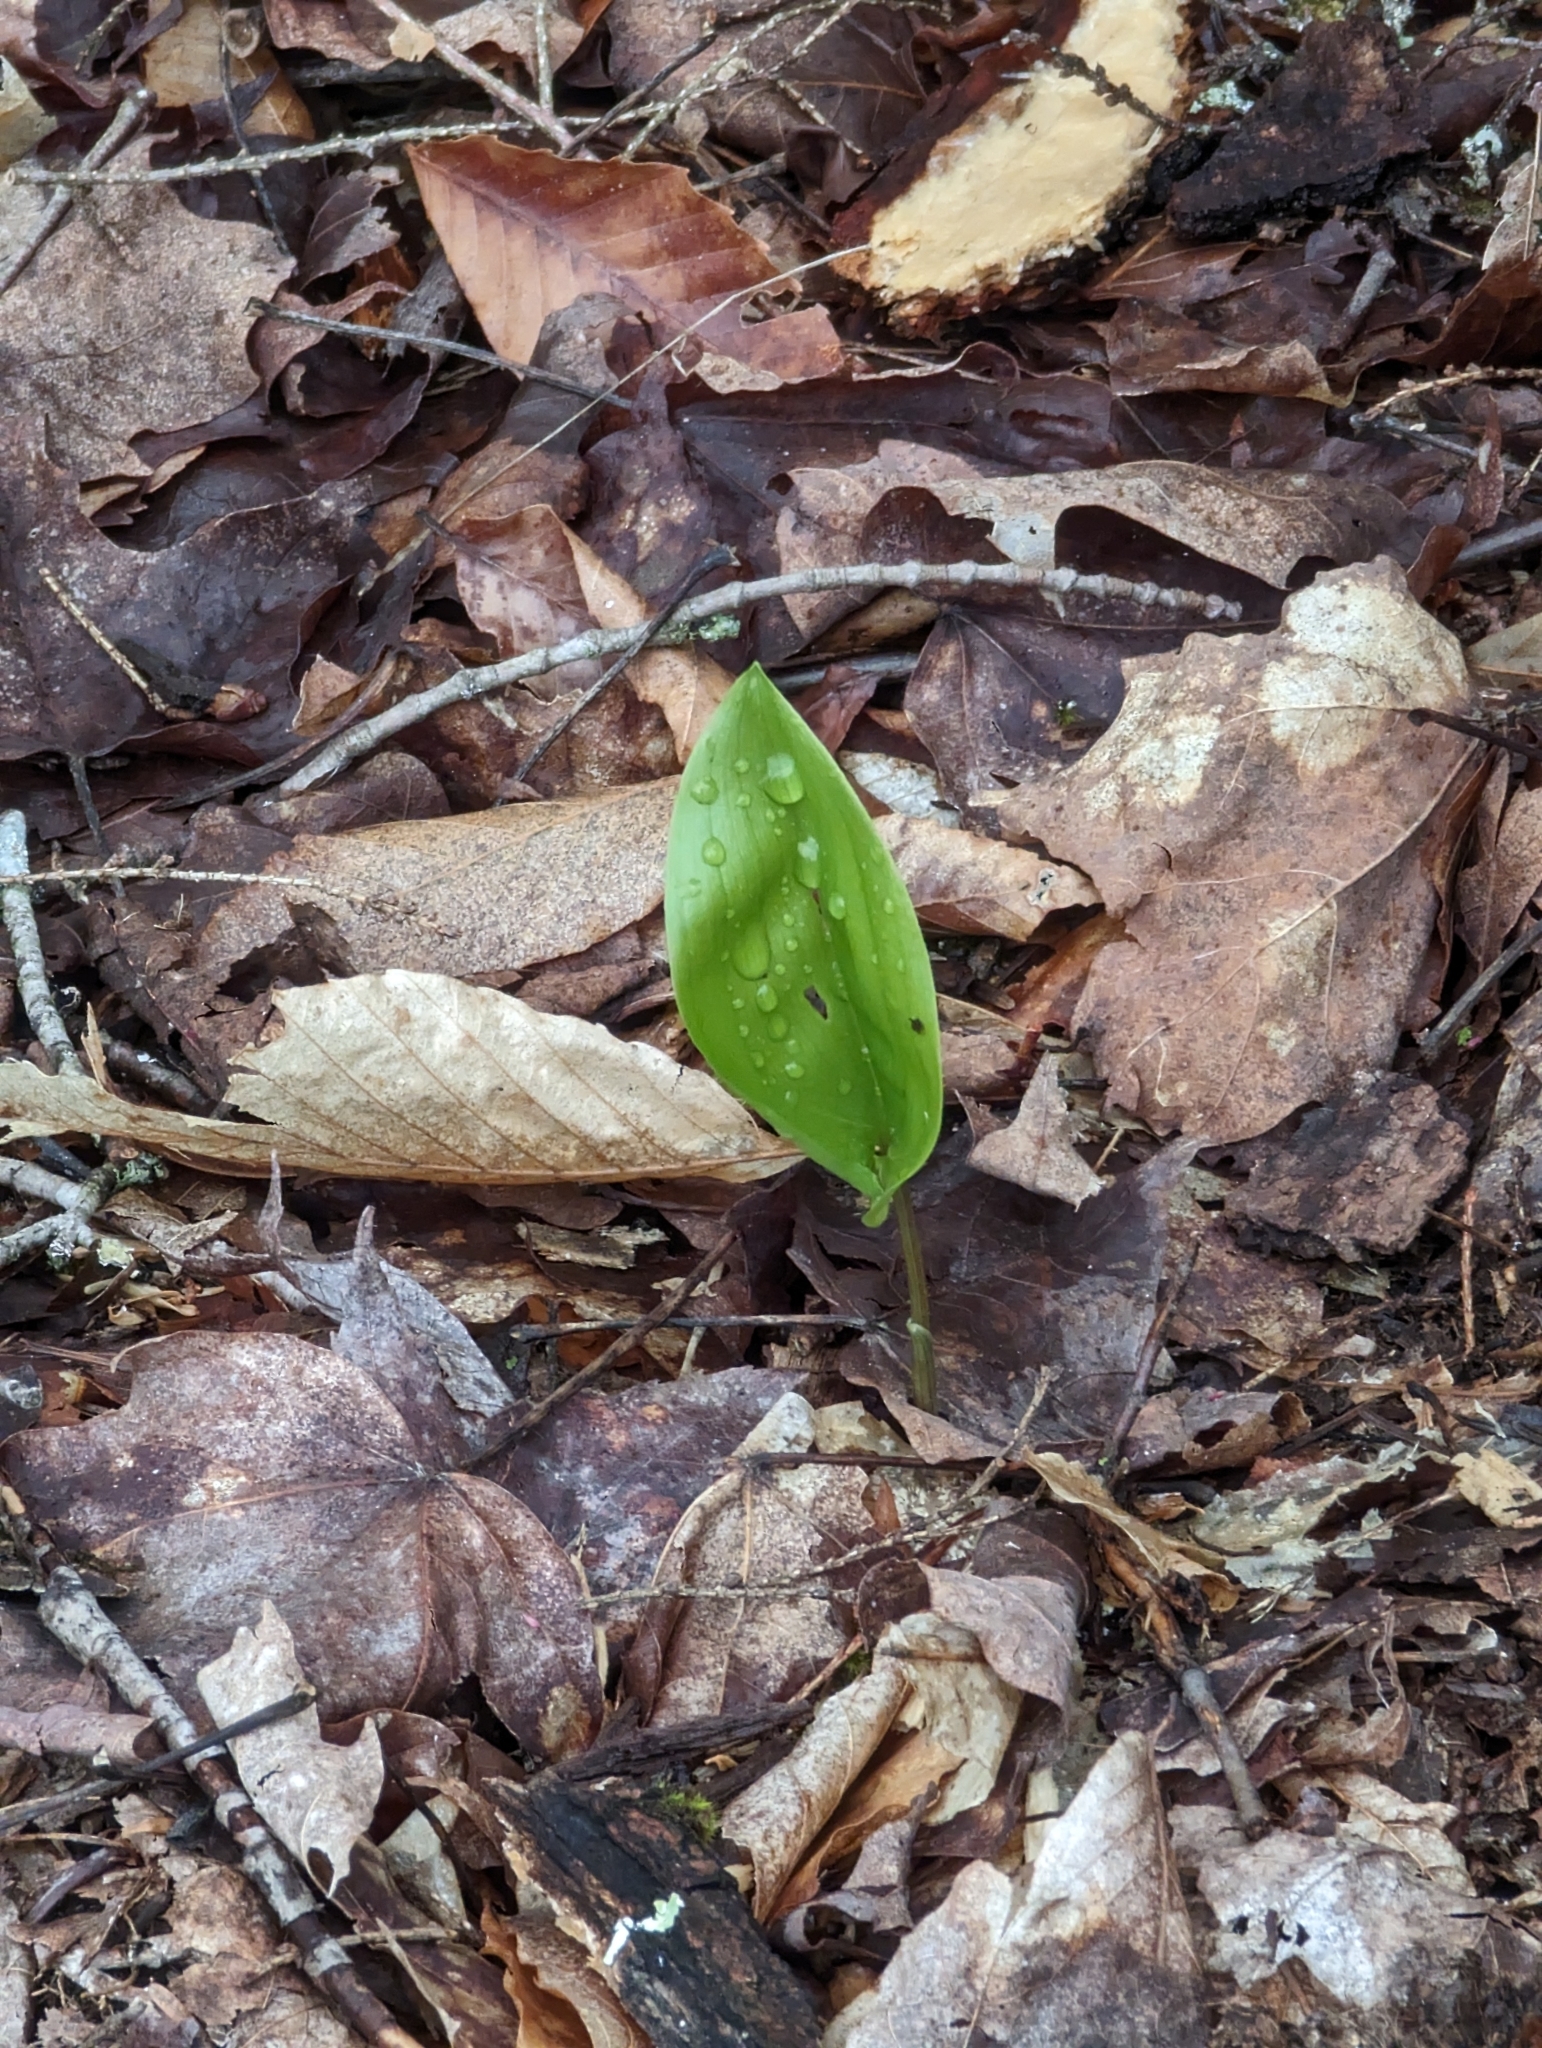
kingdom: Plantae
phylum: Tracheophyta
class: Liliopsida
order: Asparagales
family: Asparagaceae
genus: Maianthemum
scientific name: Maianthemum canadense
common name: False lily-of-the-valley
